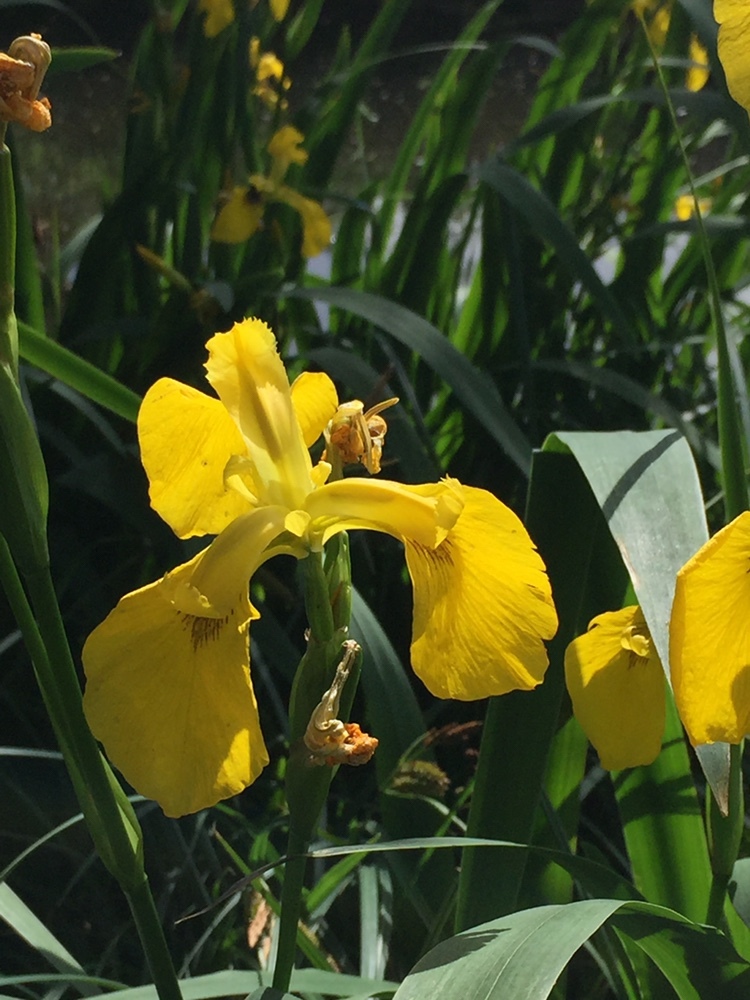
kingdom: Plantae
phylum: Tracheophyta
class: Liliopsida
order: Asparagales
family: Iridaceae
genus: Iris
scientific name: Iris pseudacorus
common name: Yellow flag
